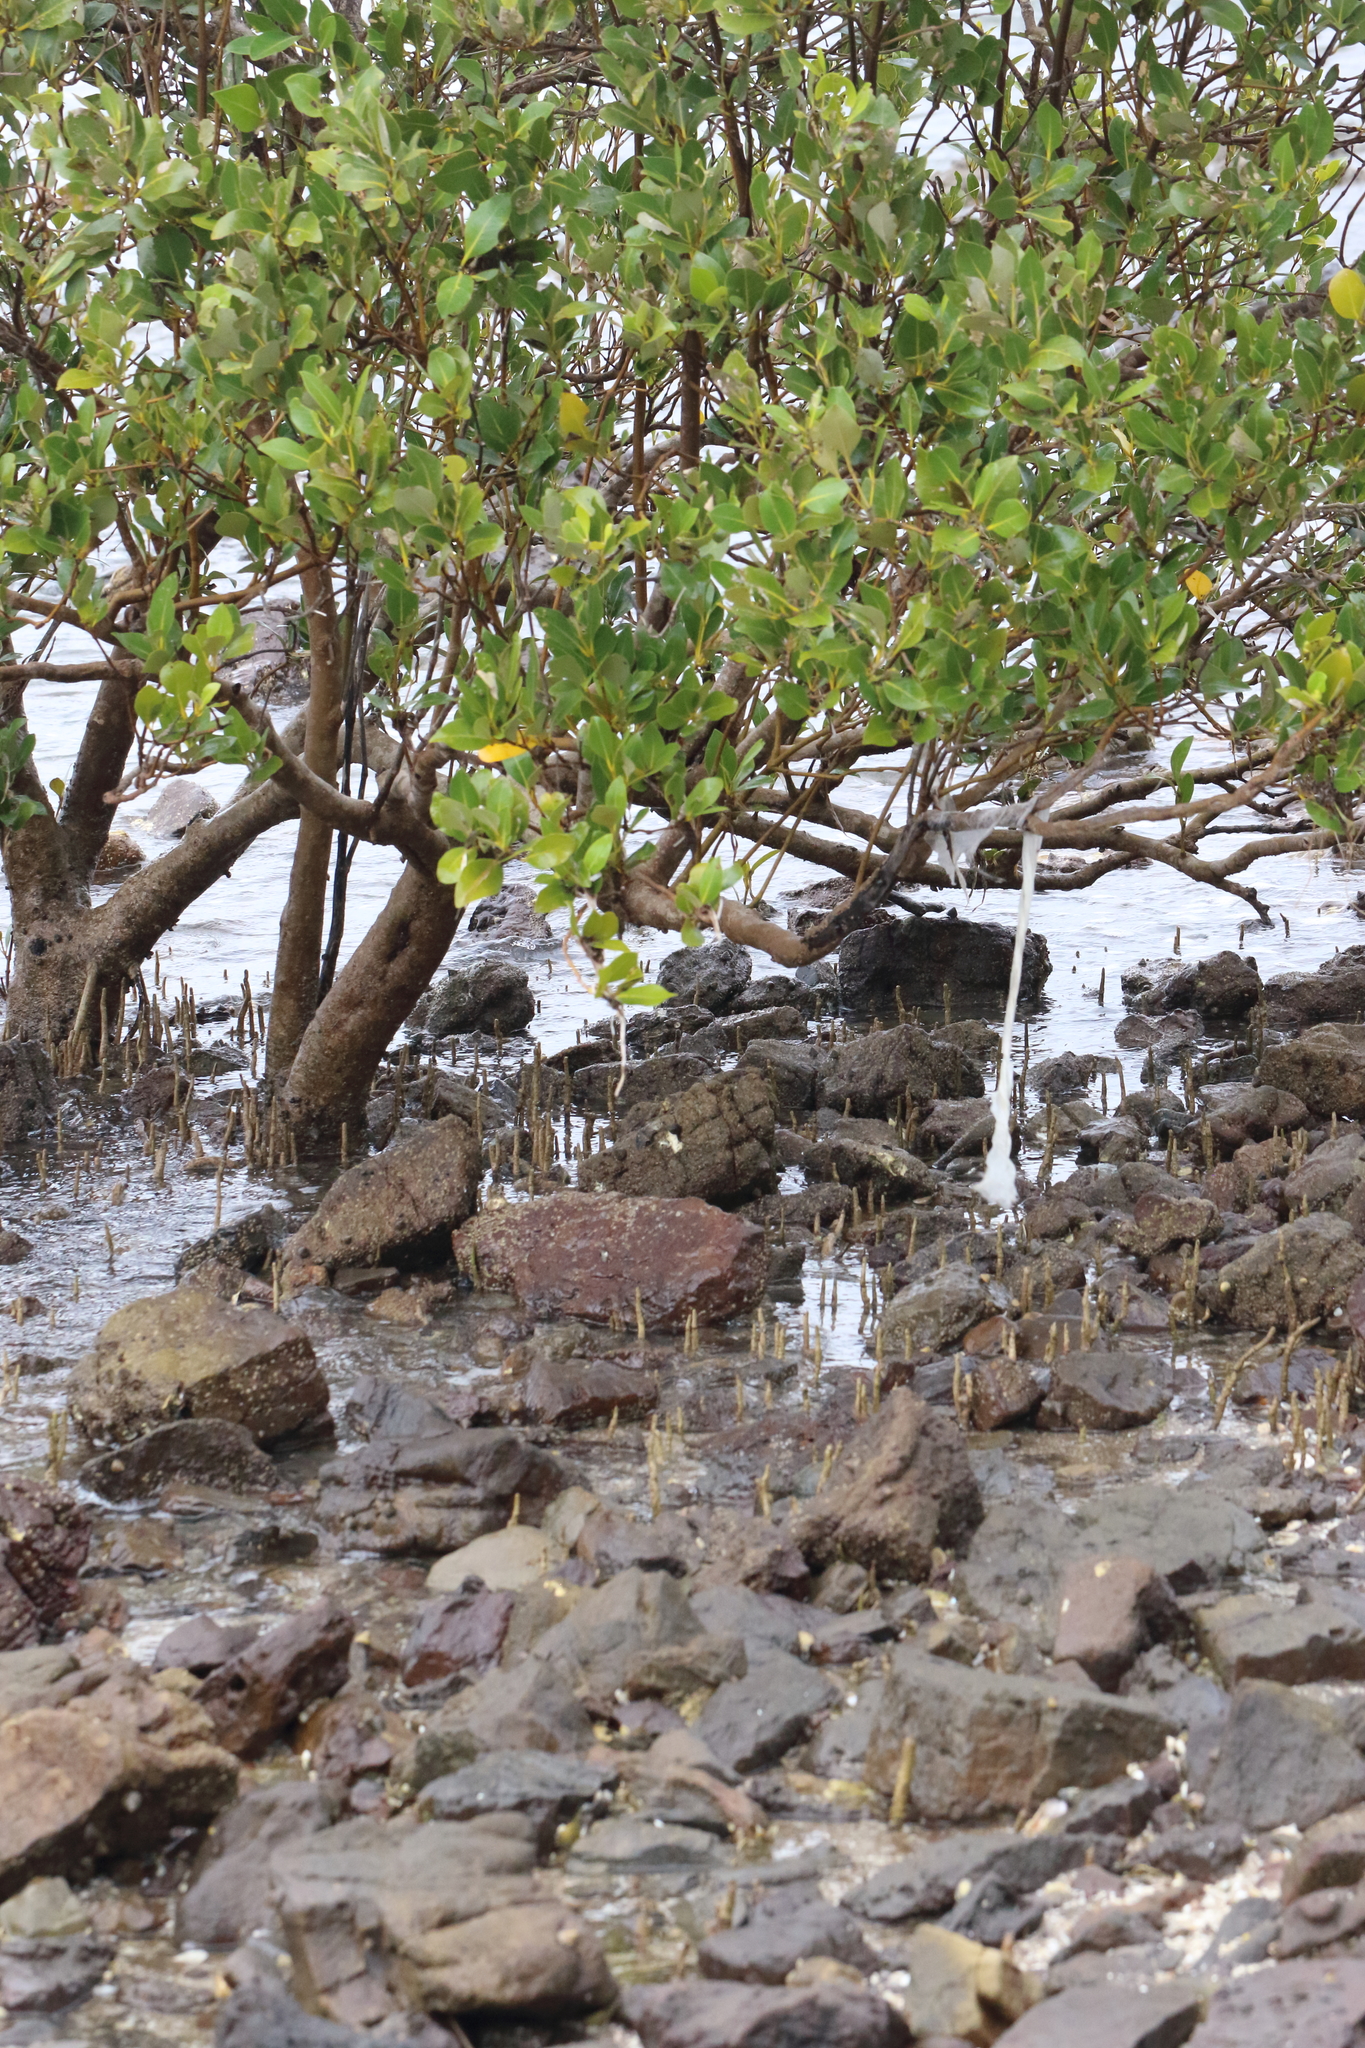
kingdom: Plantae
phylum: Tracheophyta
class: Magnoliopsida
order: Lamiales
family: Acanthaceae
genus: Avicennia
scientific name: Avicennia marina
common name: Gray mangrove
